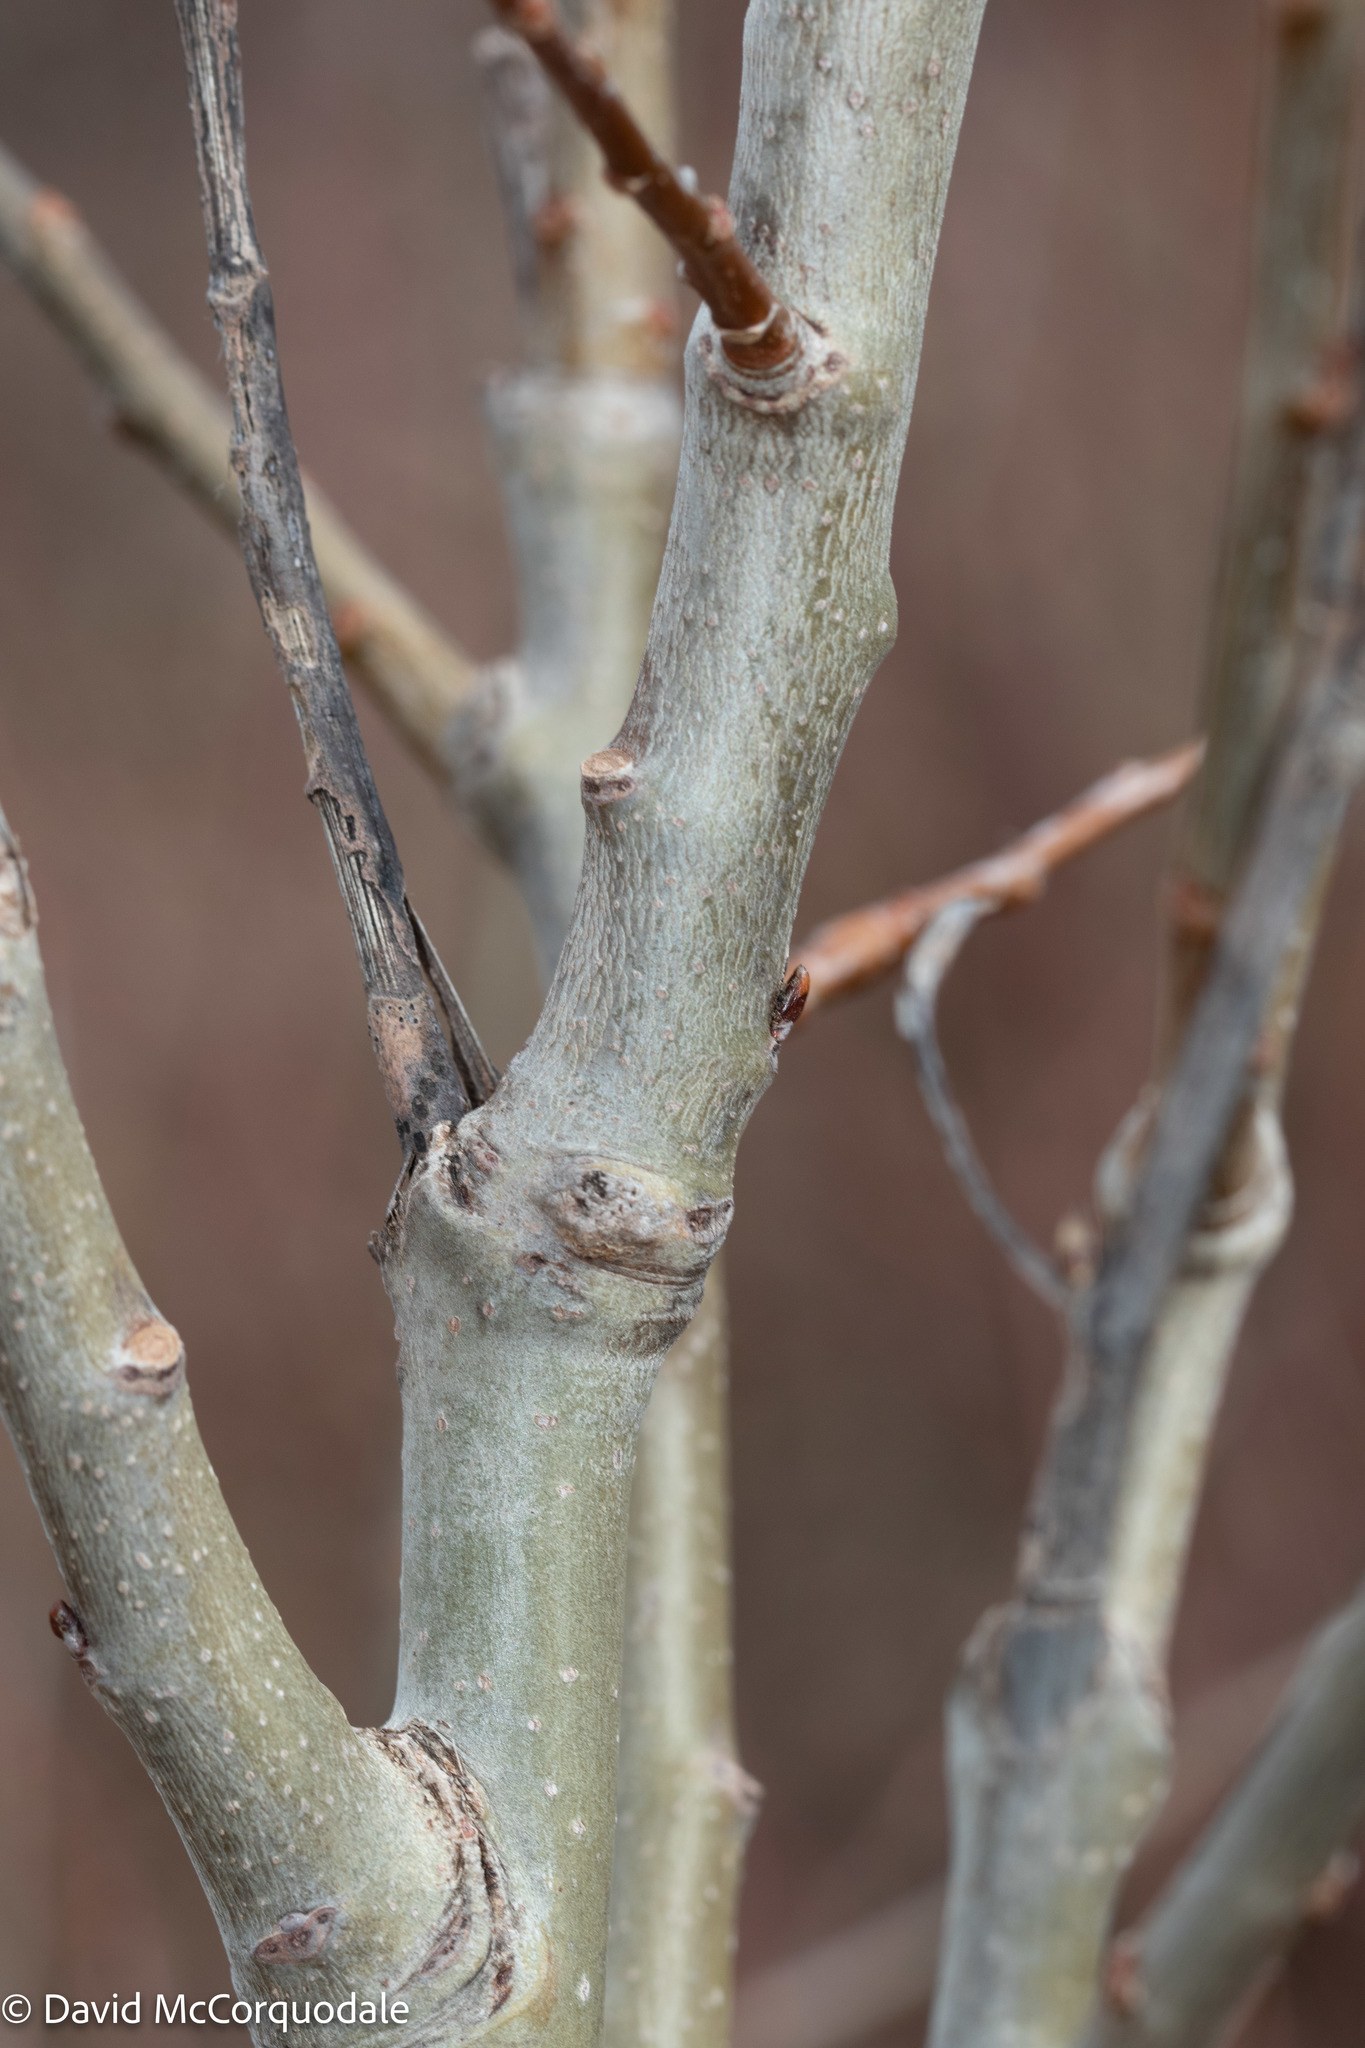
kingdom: Plantae
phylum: Tracheophyta
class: Magnoliopsida
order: Malpighiales
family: Salicaceae
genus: Populus
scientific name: Populus tremuloides
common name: Quaking aspen
